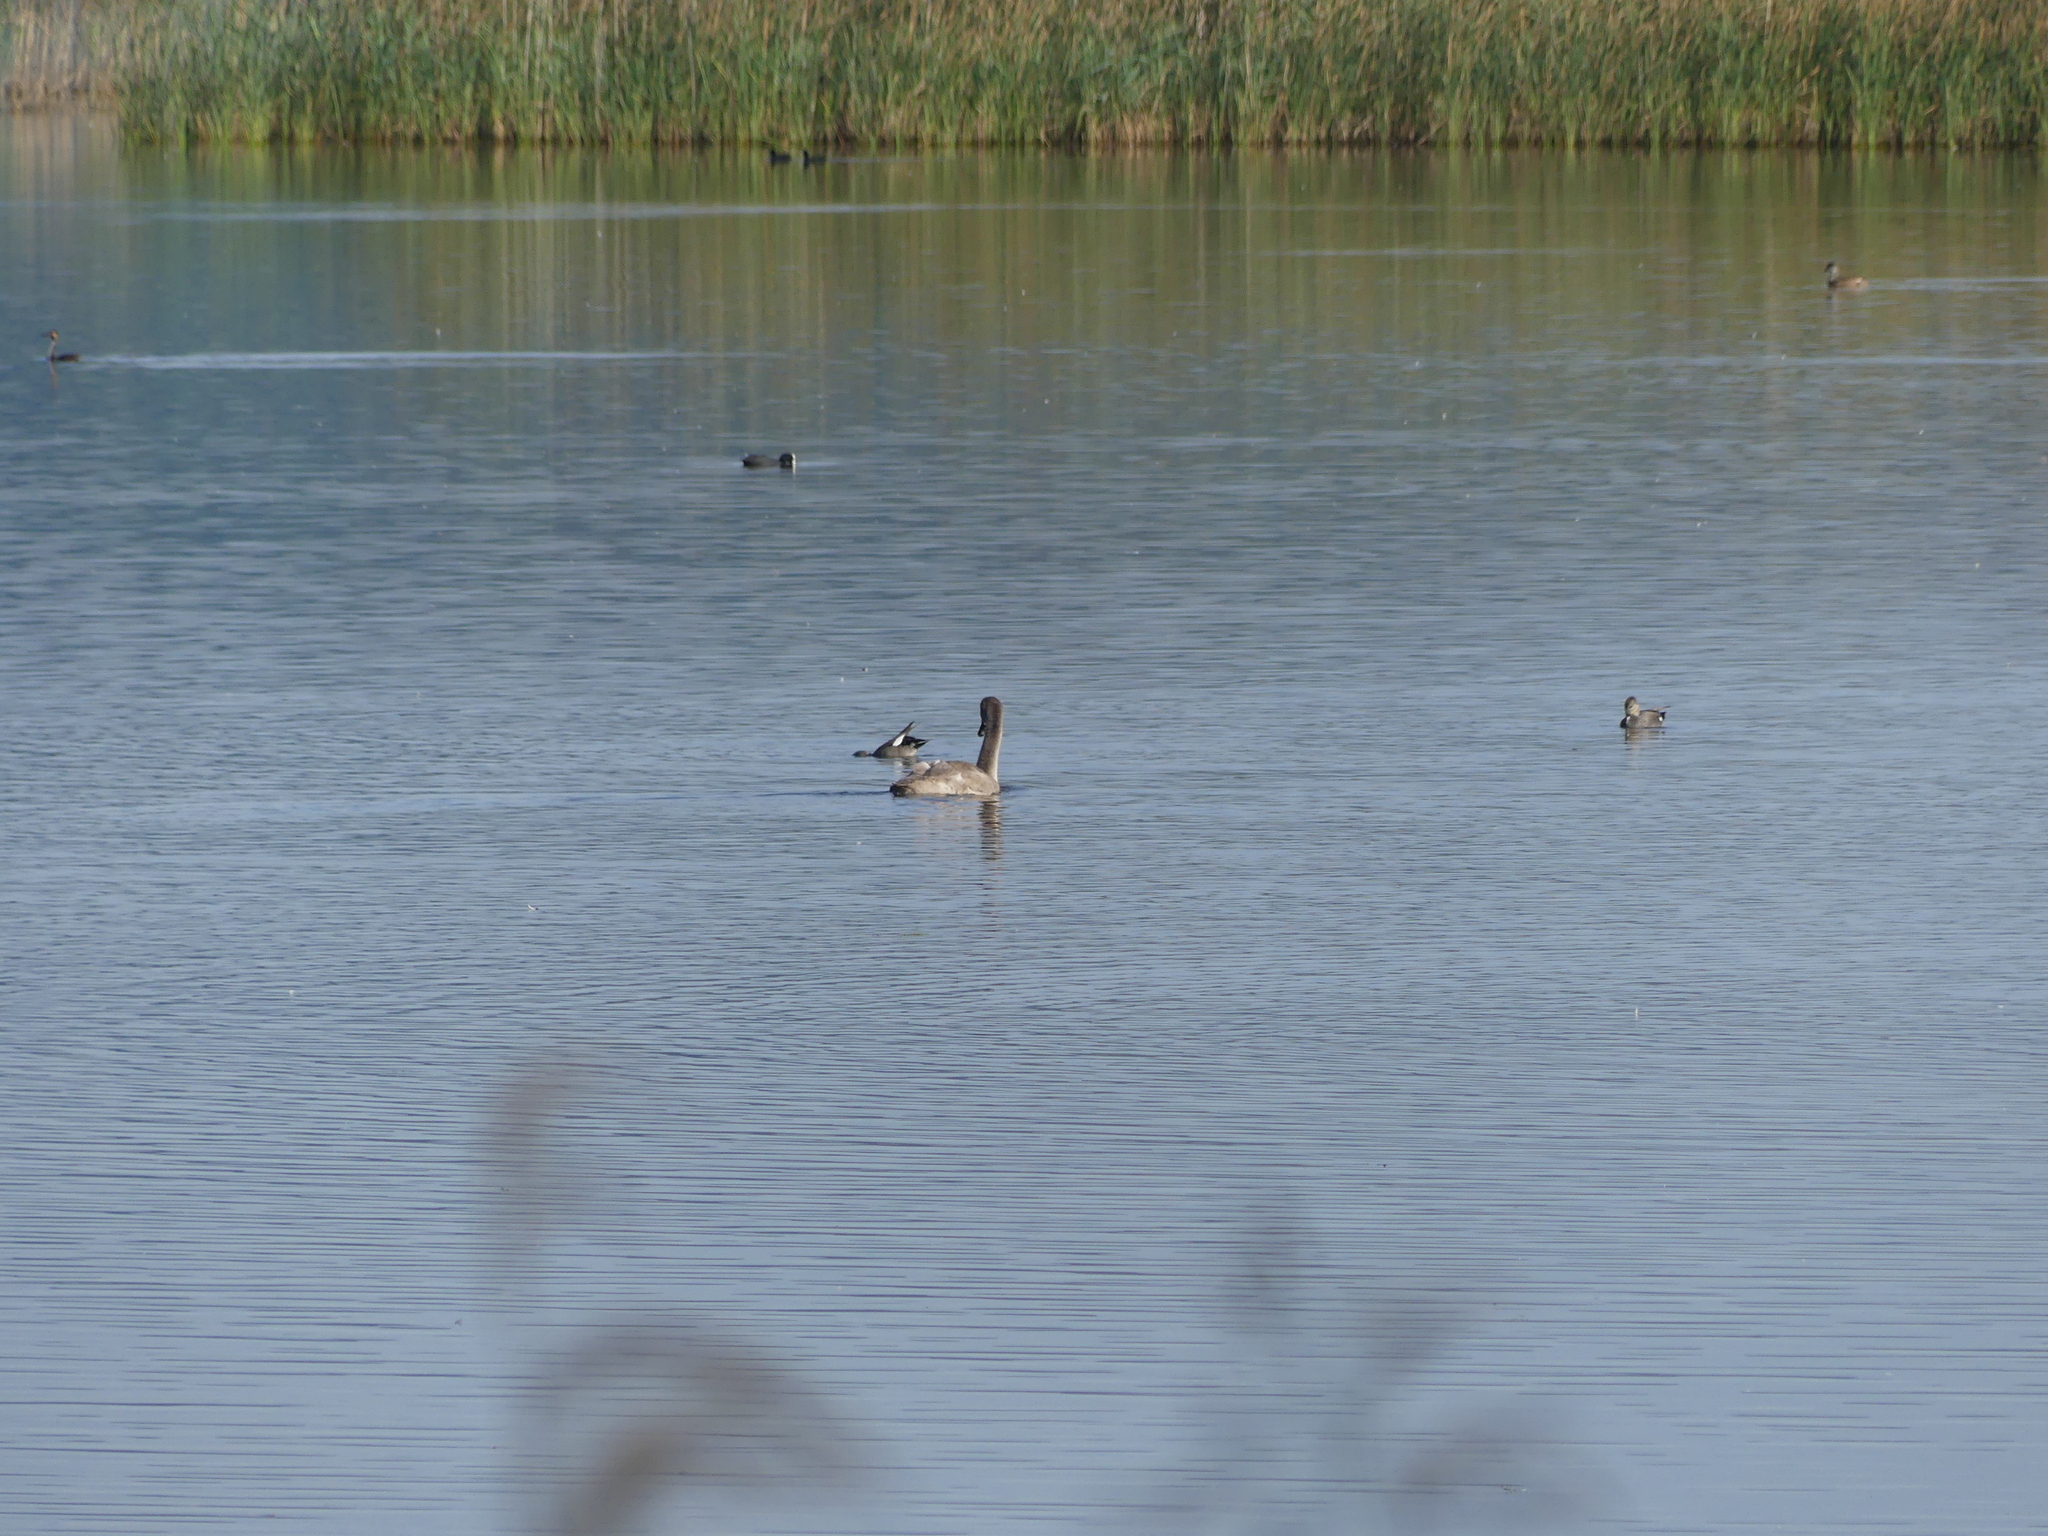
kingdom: Animalia
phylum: Chordata
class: Aves
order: Anseriformes
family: Anatidae
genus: Cygnus
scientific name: Cygnus olor
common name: Mute swan
